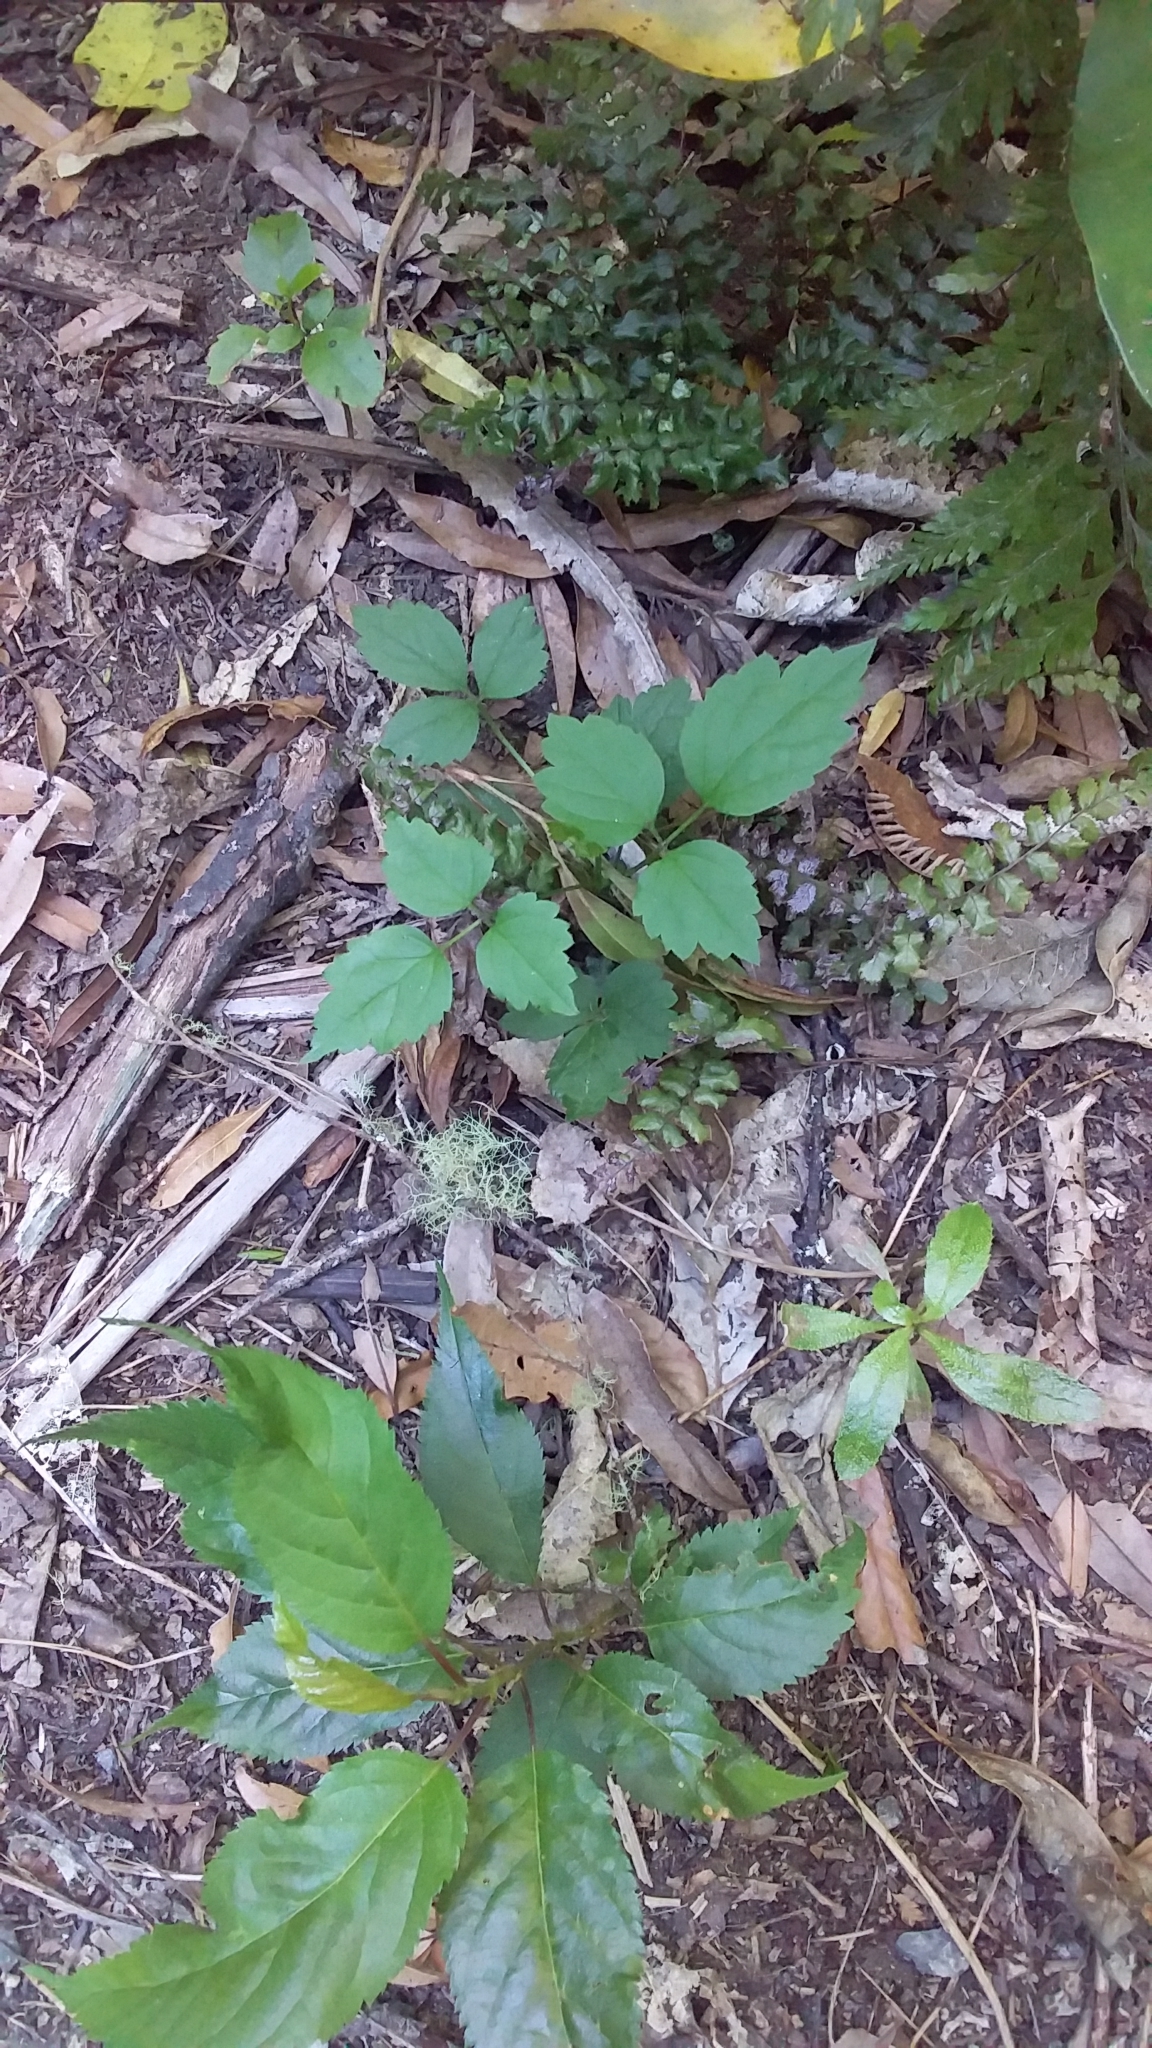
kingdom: Plantae
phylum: Tracheophyta
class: Magnoliopsida
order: Ranunculales
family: Ranunculaceae
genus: Clematis
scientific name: Clematis vitalba
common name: Evergreen clematis
